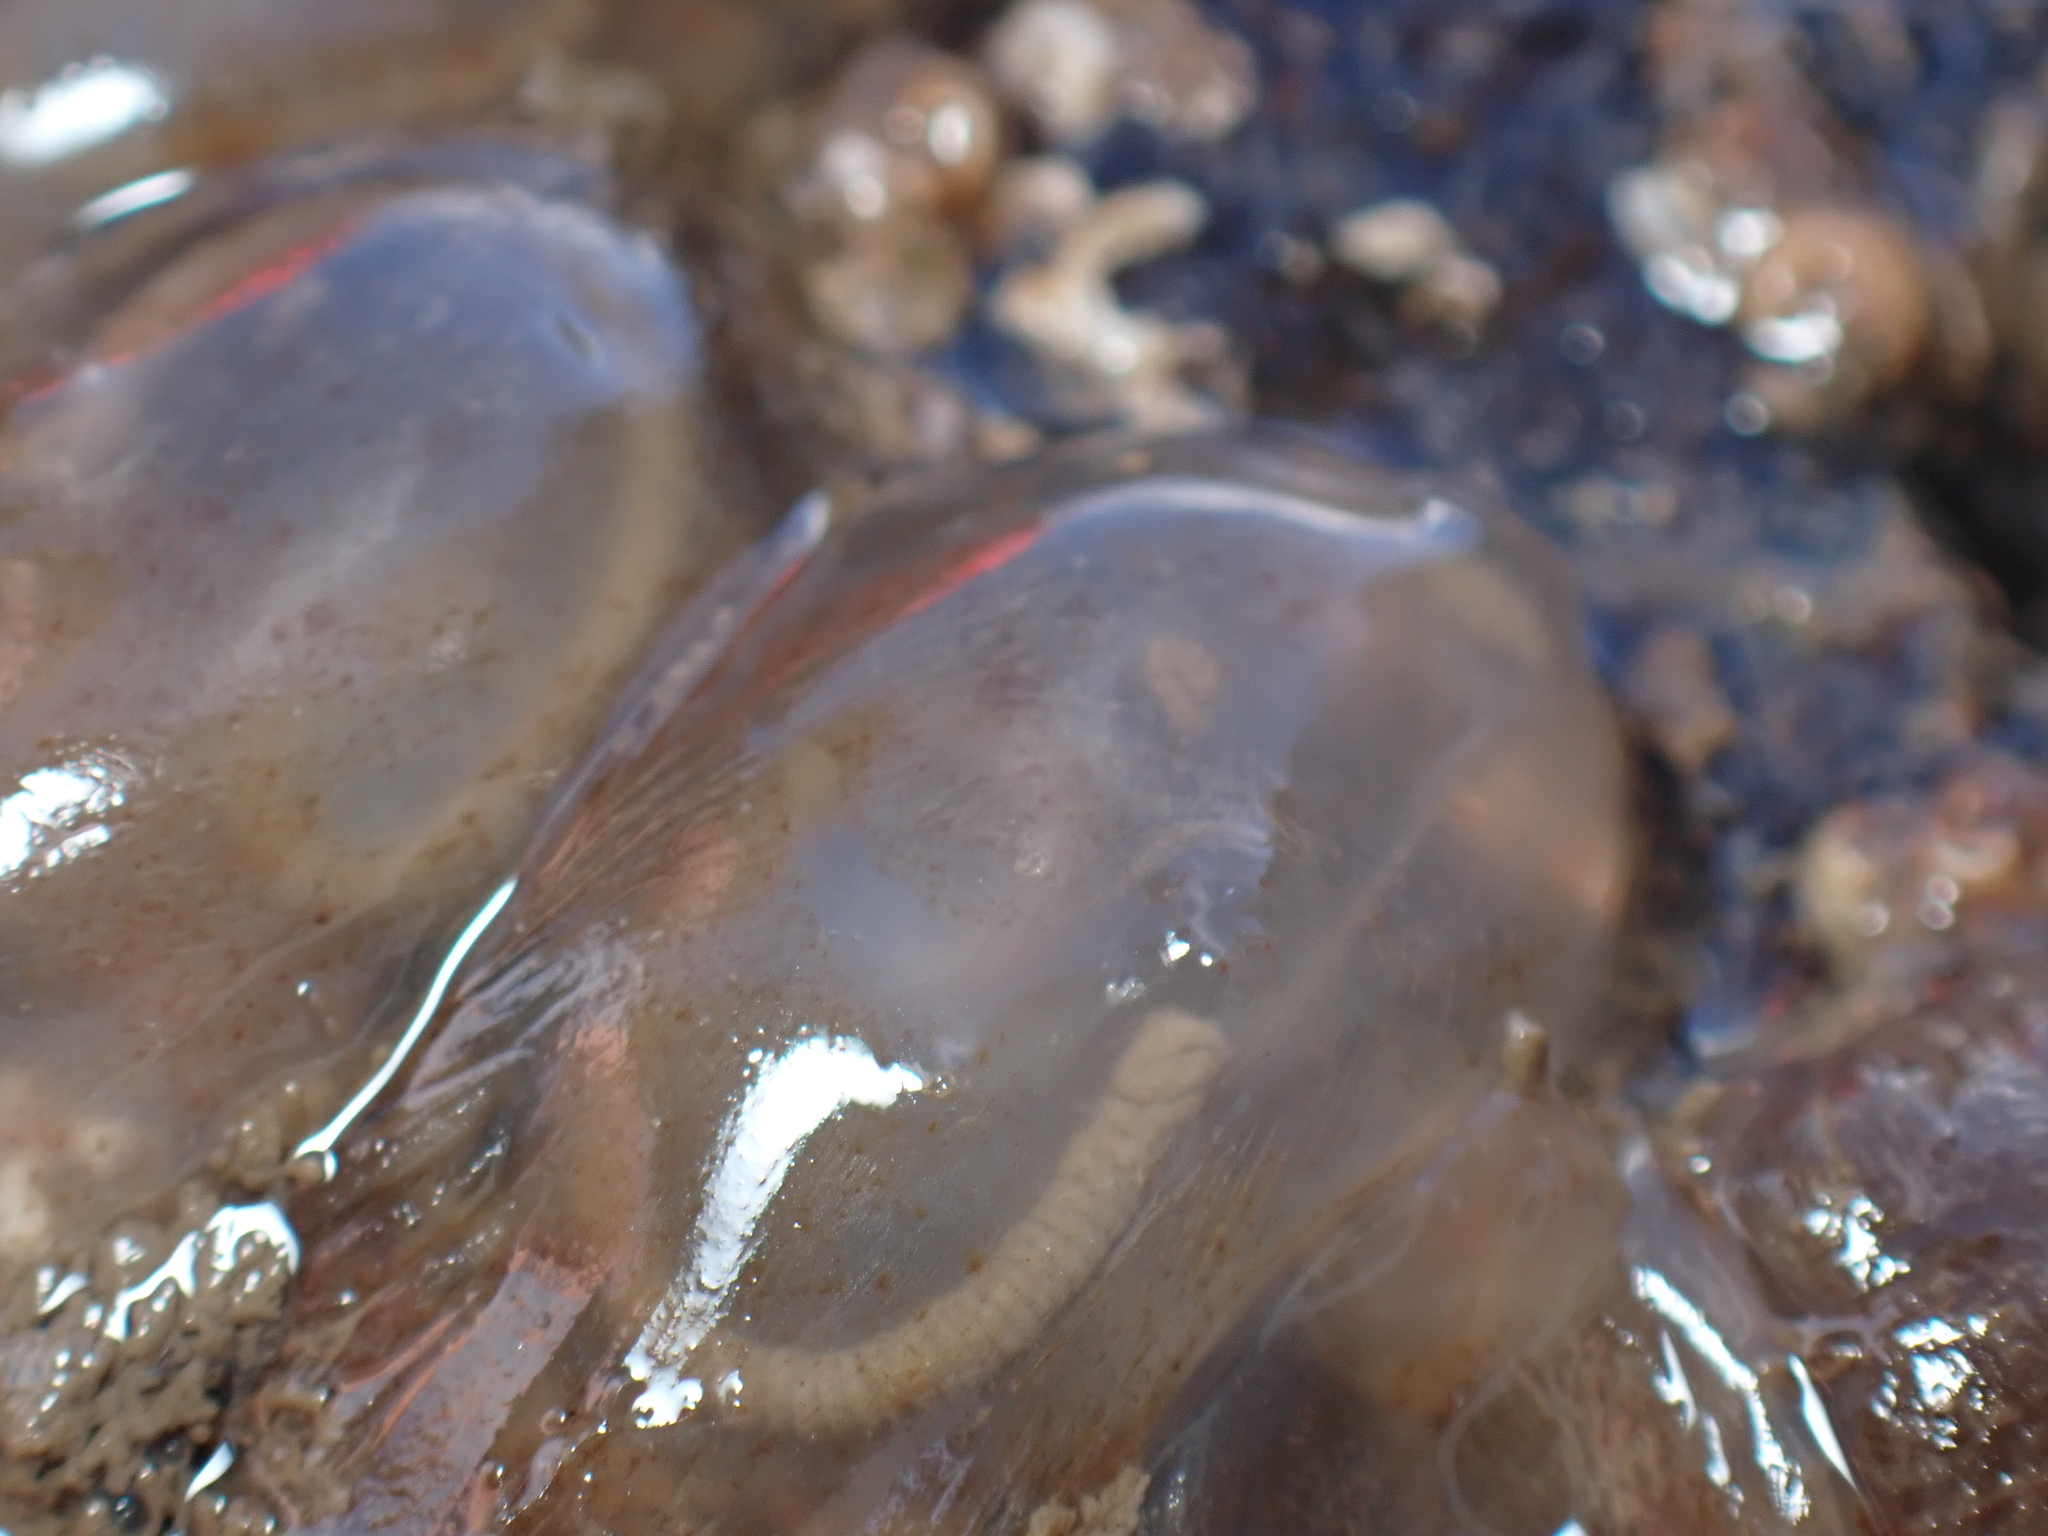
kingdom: Animalia
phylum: Chordata
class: Ascidiacea
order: Phlebobranchia
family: Corellidae
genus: Corella
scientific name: Corella eumyota
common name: Orange-tipped sea squirt
